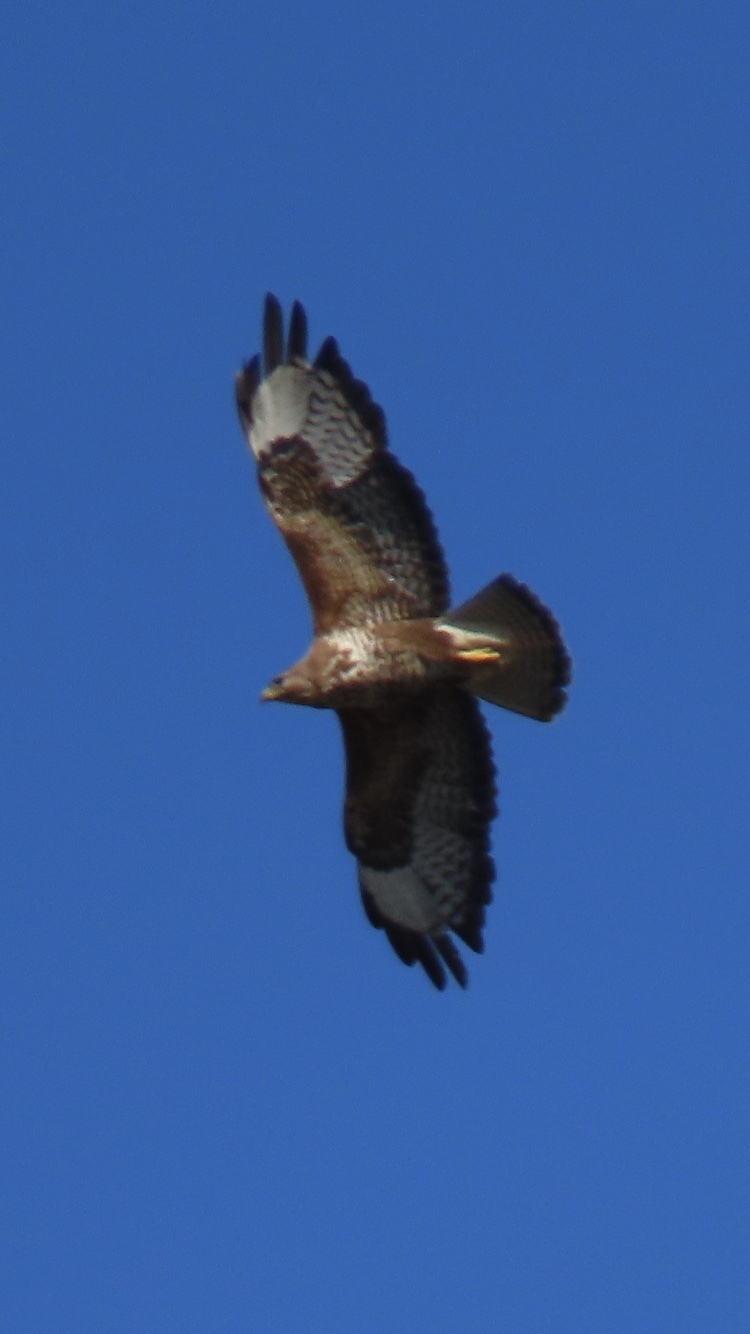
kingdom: Animalia
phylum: Chordata
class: Aves
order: Accipitriformes
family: Accipitridae
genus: Buteo
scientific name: Buteo buteo
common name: Common buzzard
